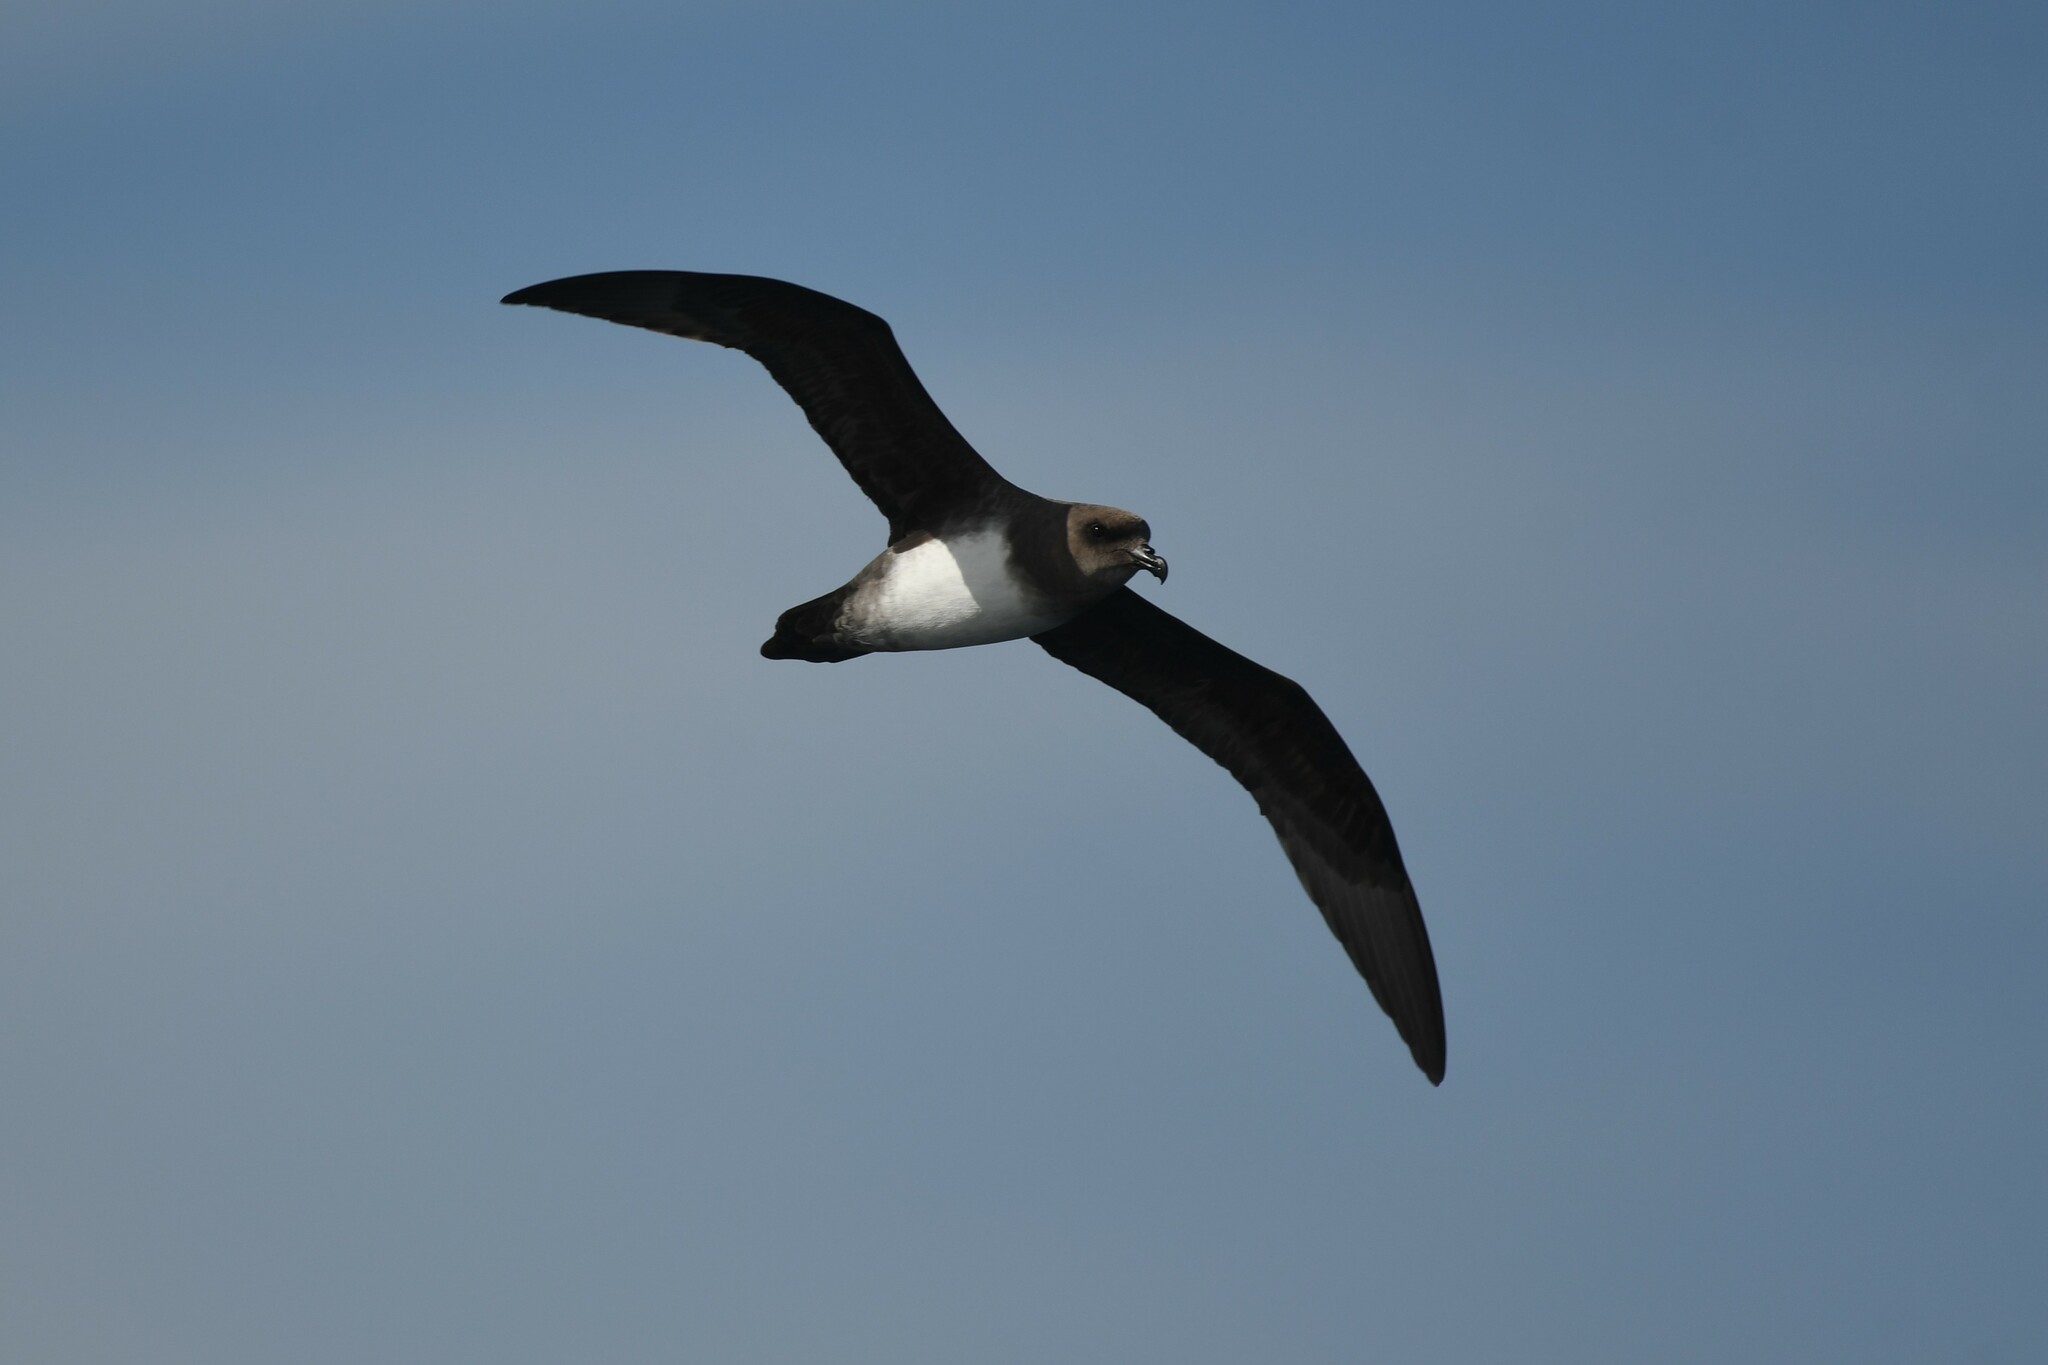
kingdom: Animalia
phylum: Chordata
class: Aves
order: Procellariiformes
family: Procellariidae
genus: Pterodroma
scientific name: Pterodroma incerta
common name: Atlantic petrel
